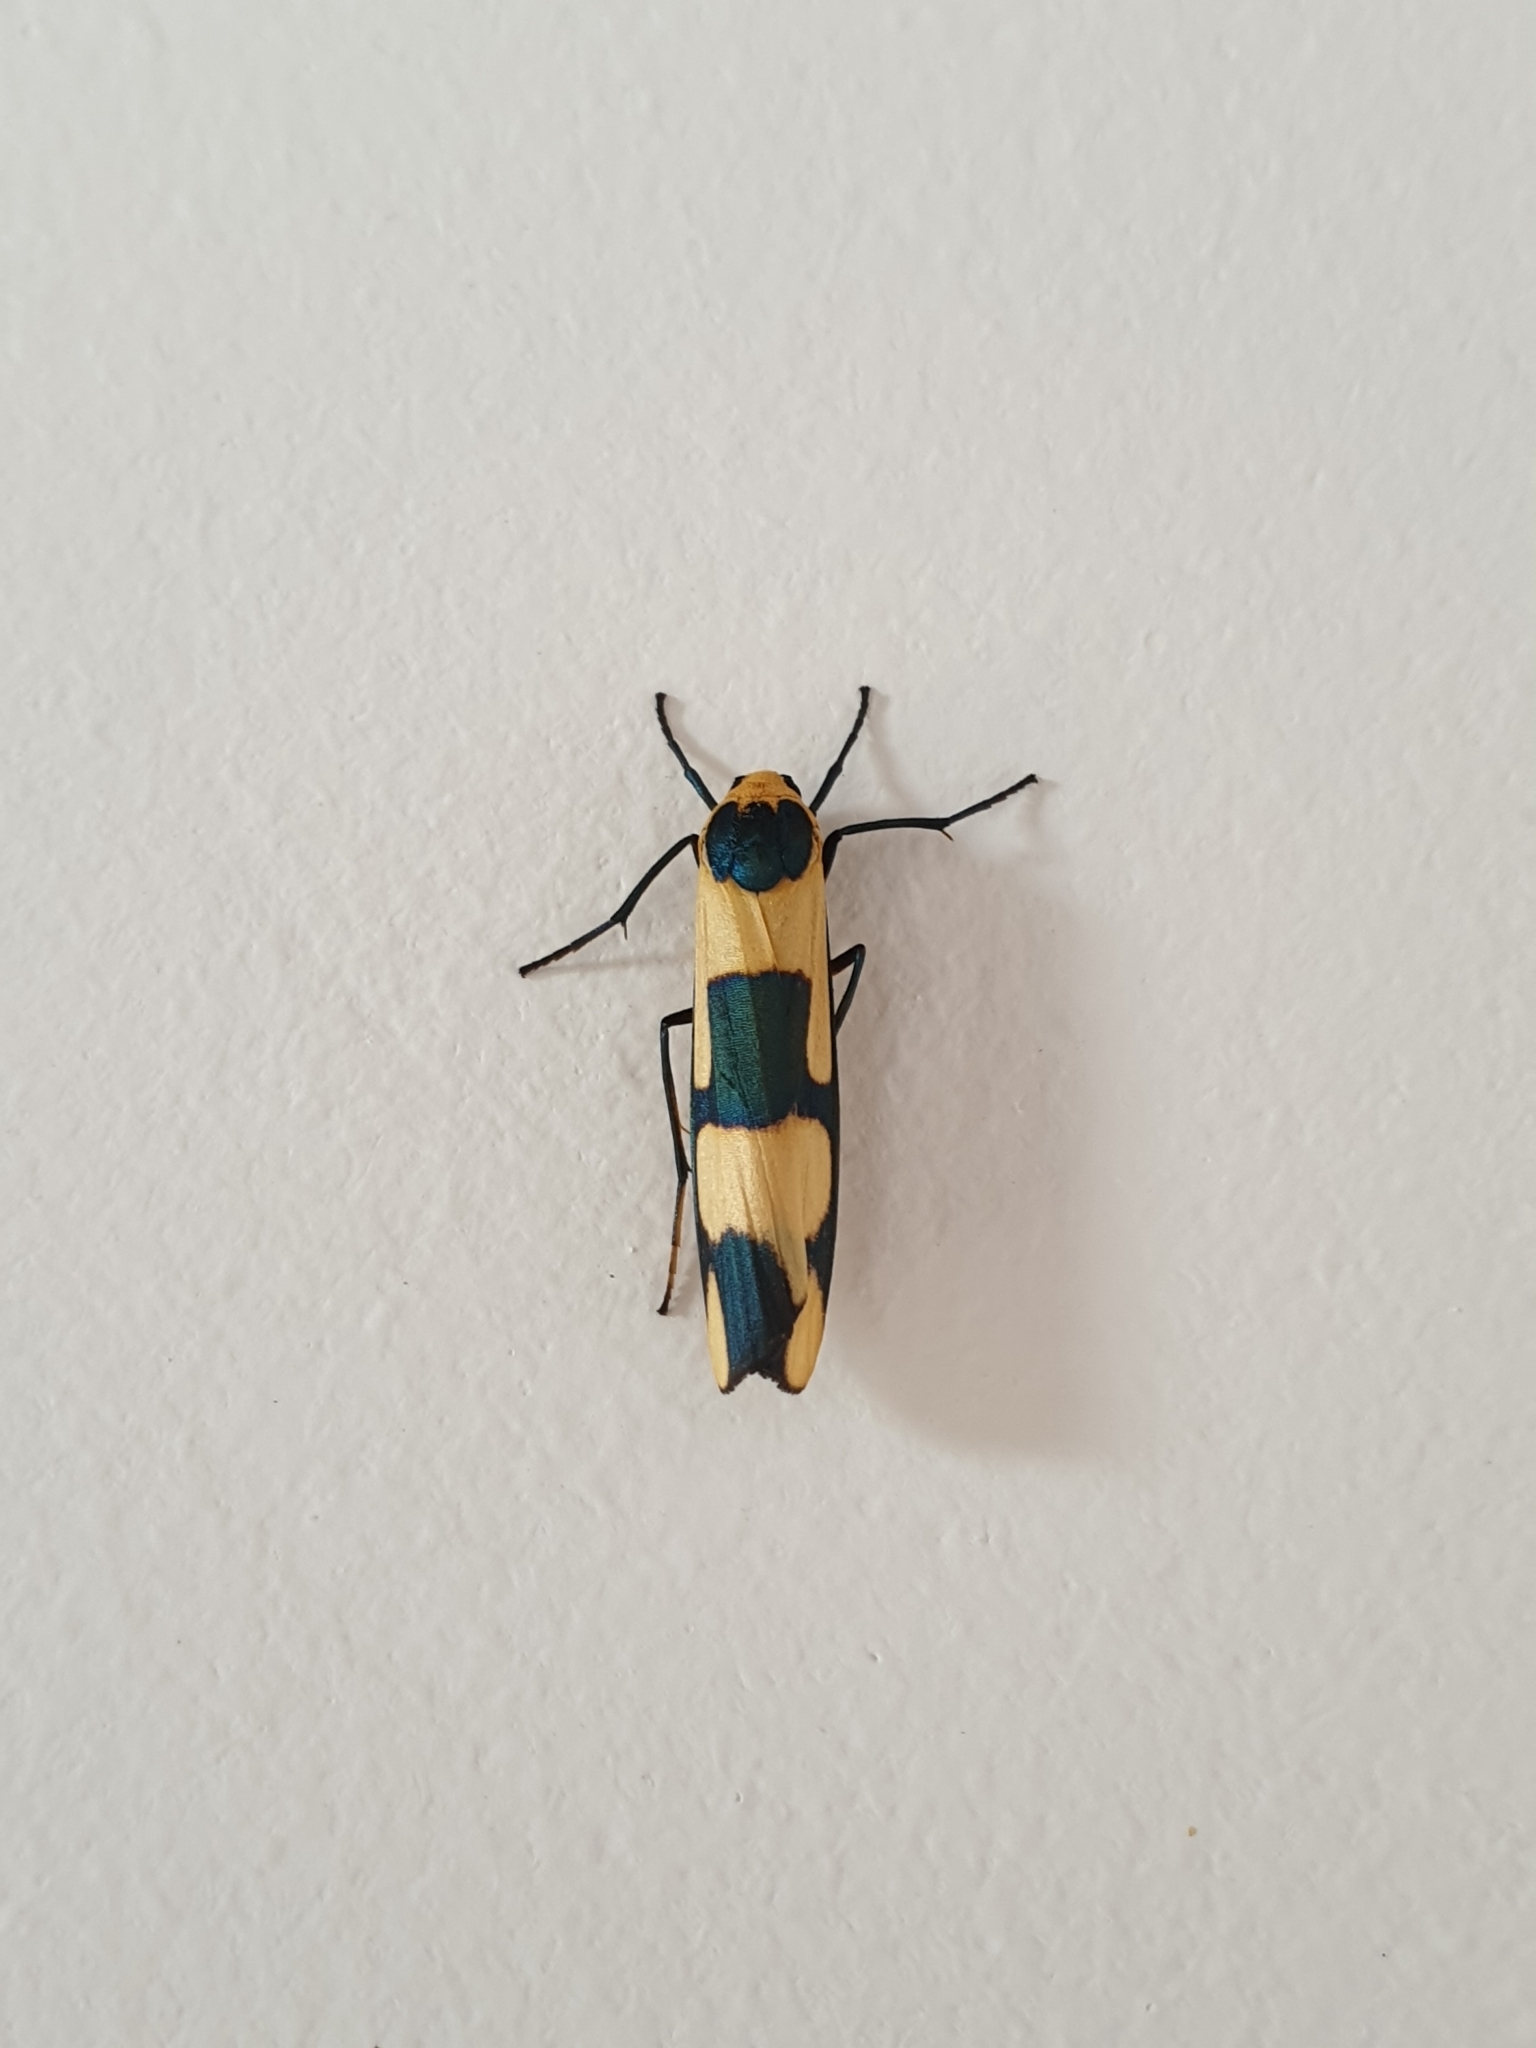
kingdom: Animalia
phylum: Arthropoda
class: Insecta
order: Lepidoptera
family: Erebidae
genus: Oeonistis
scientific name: Oeonistis entella
